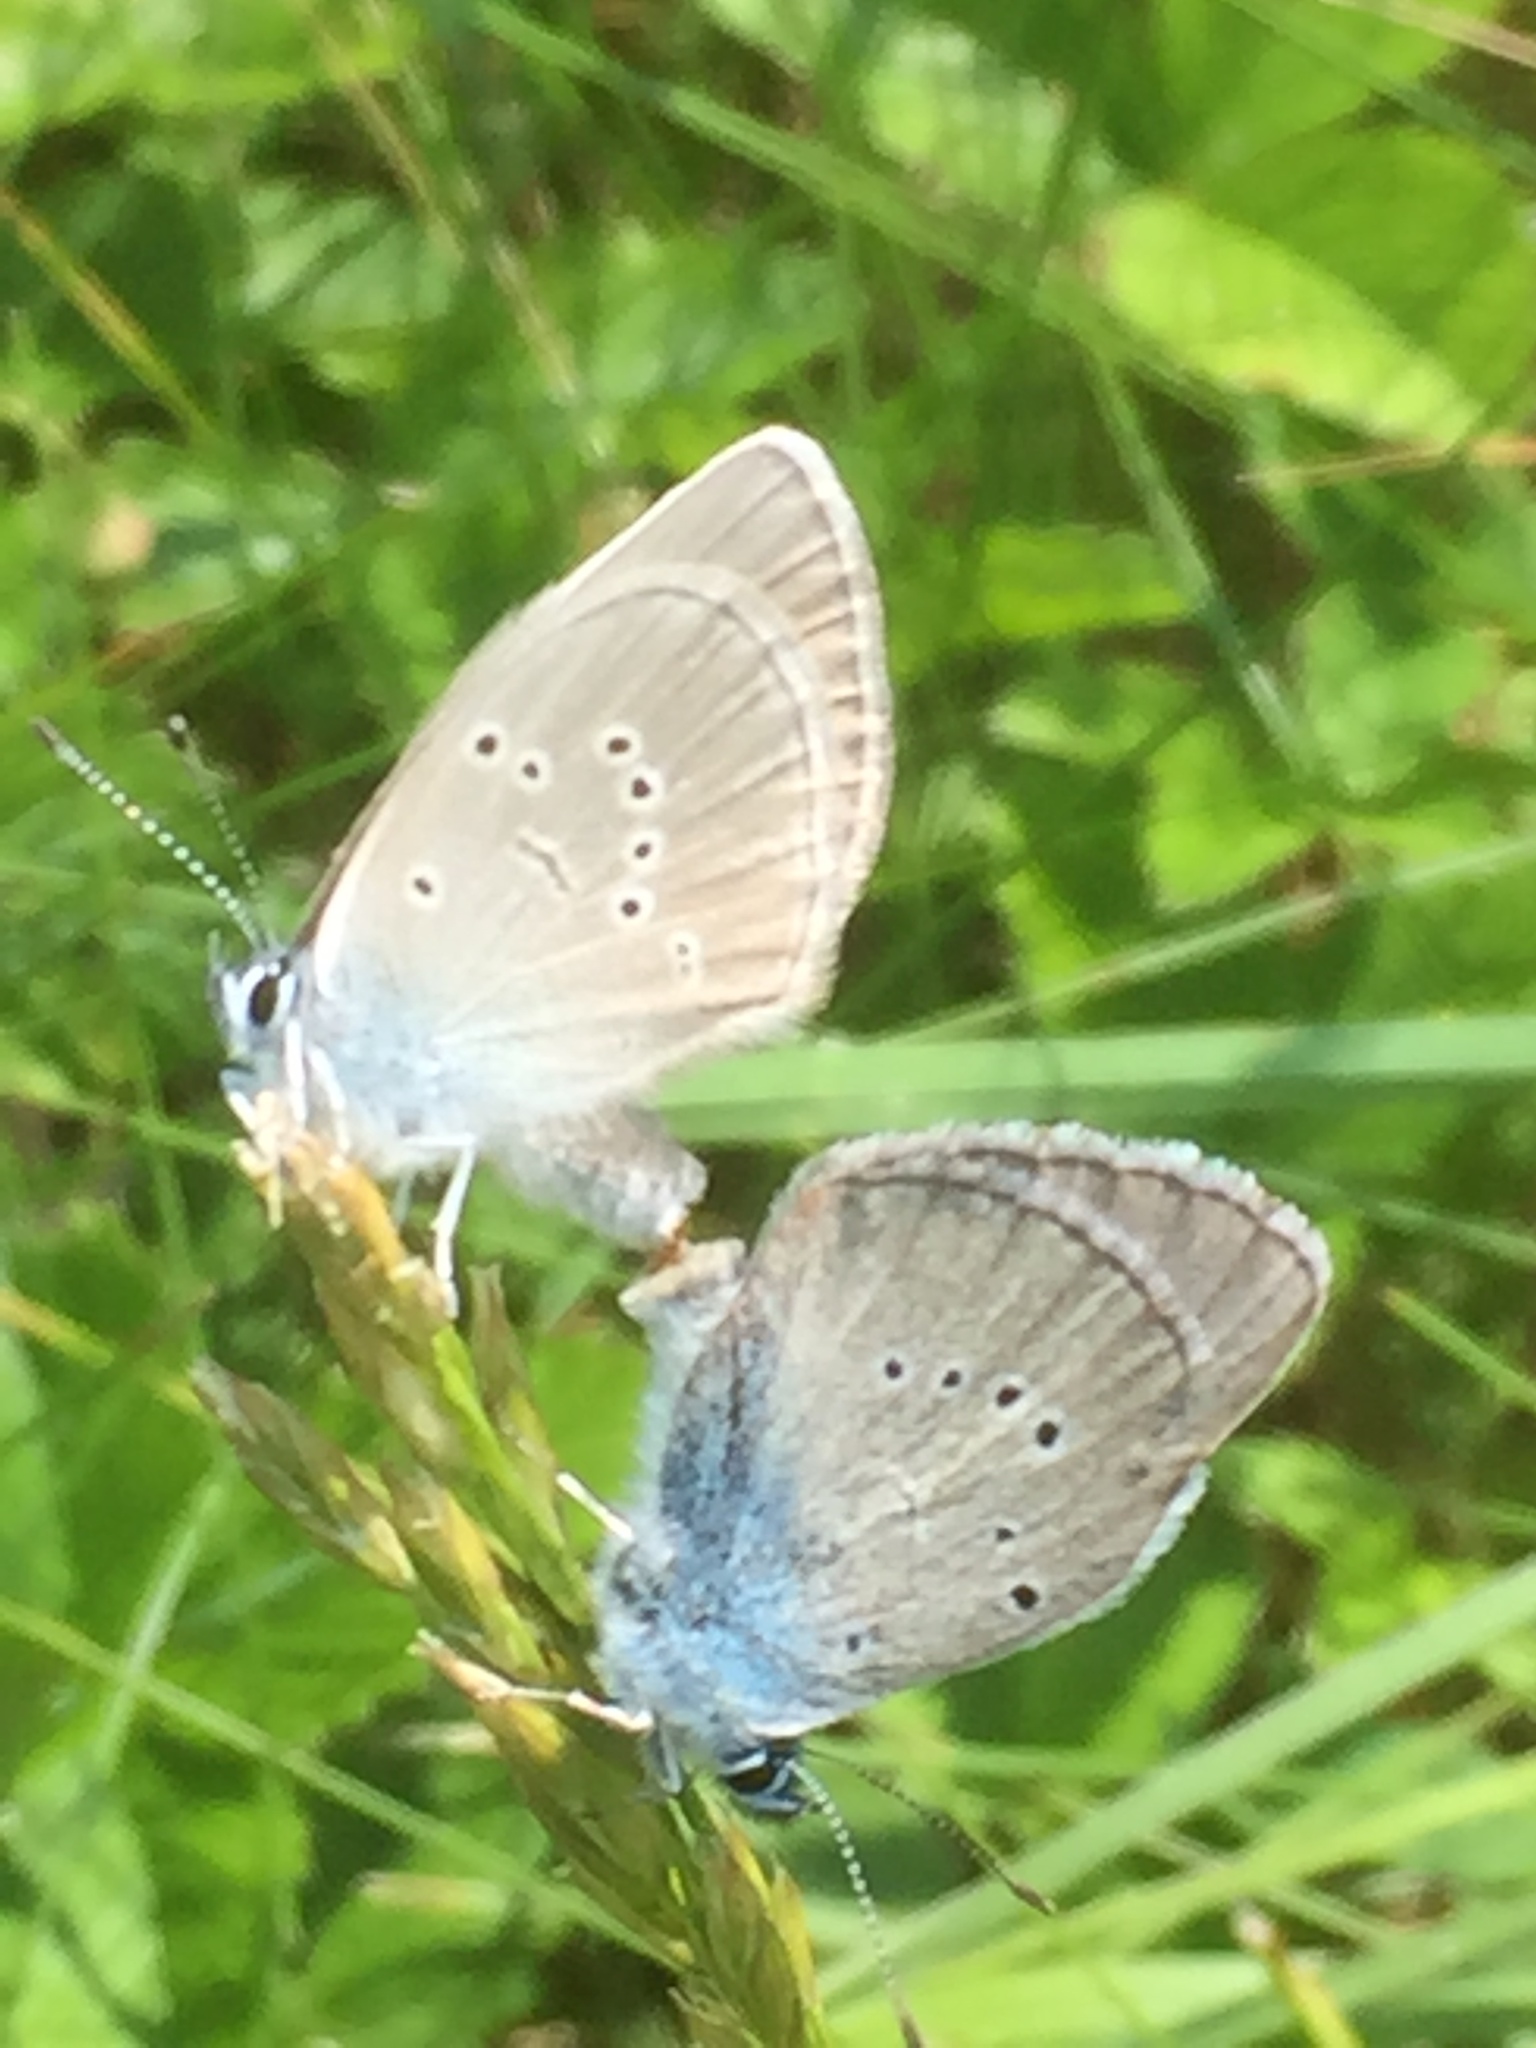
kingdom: Animalia
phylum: Arthropoda
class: Insecta
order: Lepidoptera
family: Lycaenidae
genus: Cyaniris
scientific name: Cyaniris semiargus
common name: Mazarine blue
